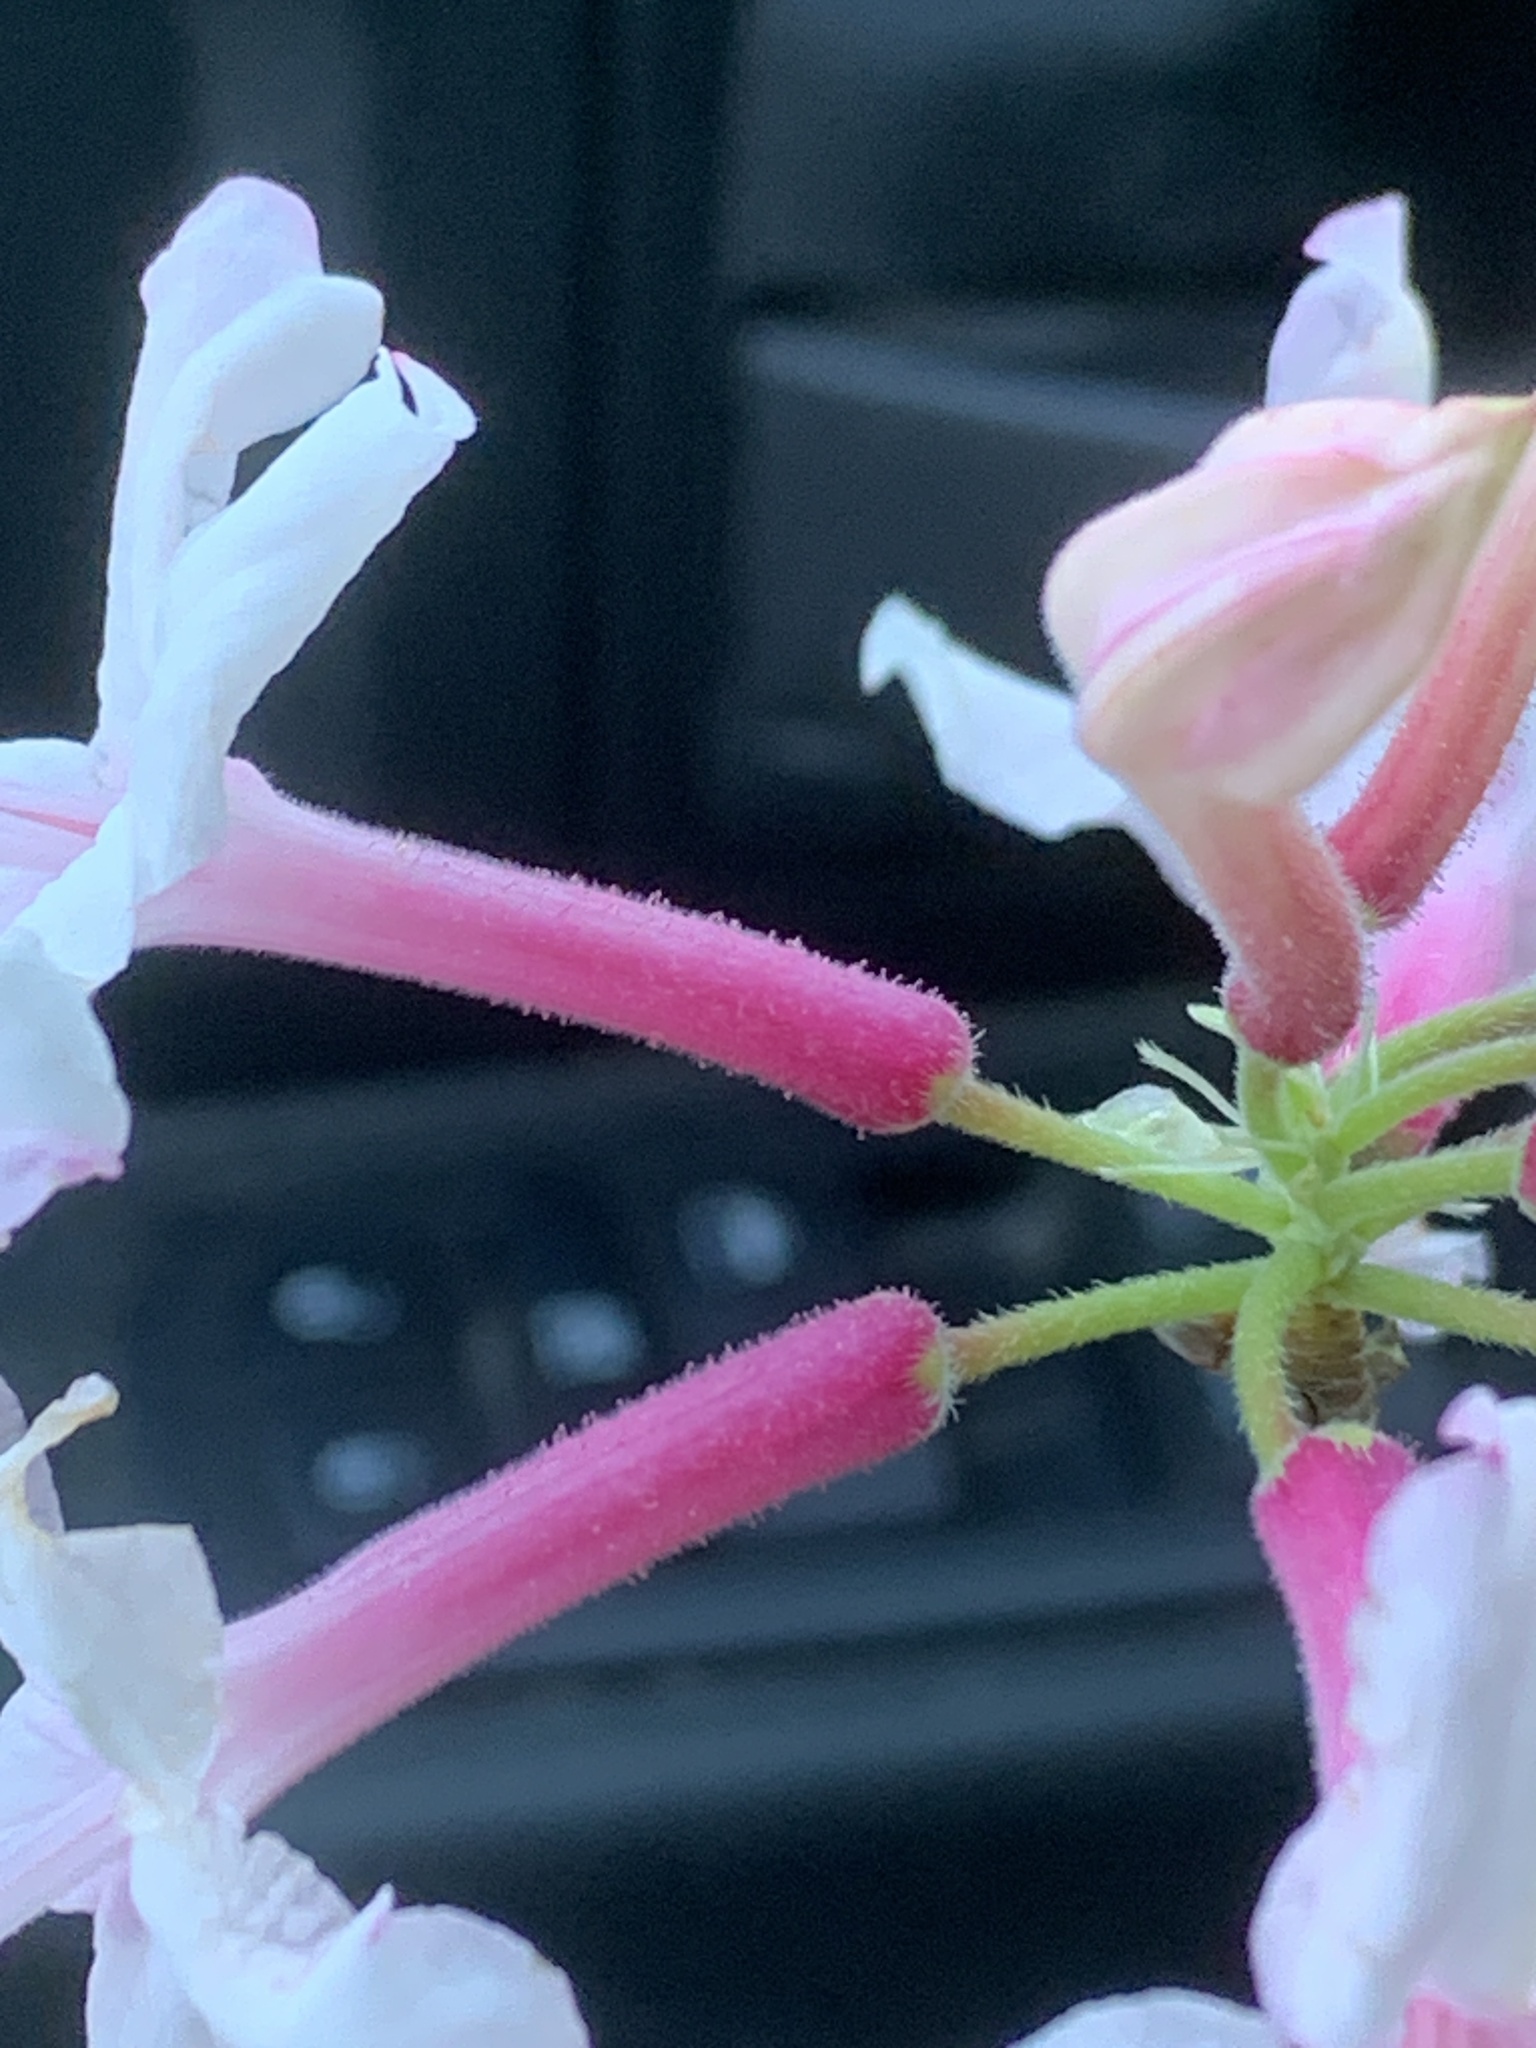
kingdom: Plantae
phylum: Tracheophyta
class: Magnoliopsida
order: Ericales
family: Ericaceae
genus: Rhododendron
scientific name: Rhododendron canescens
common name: Mountain azalea
